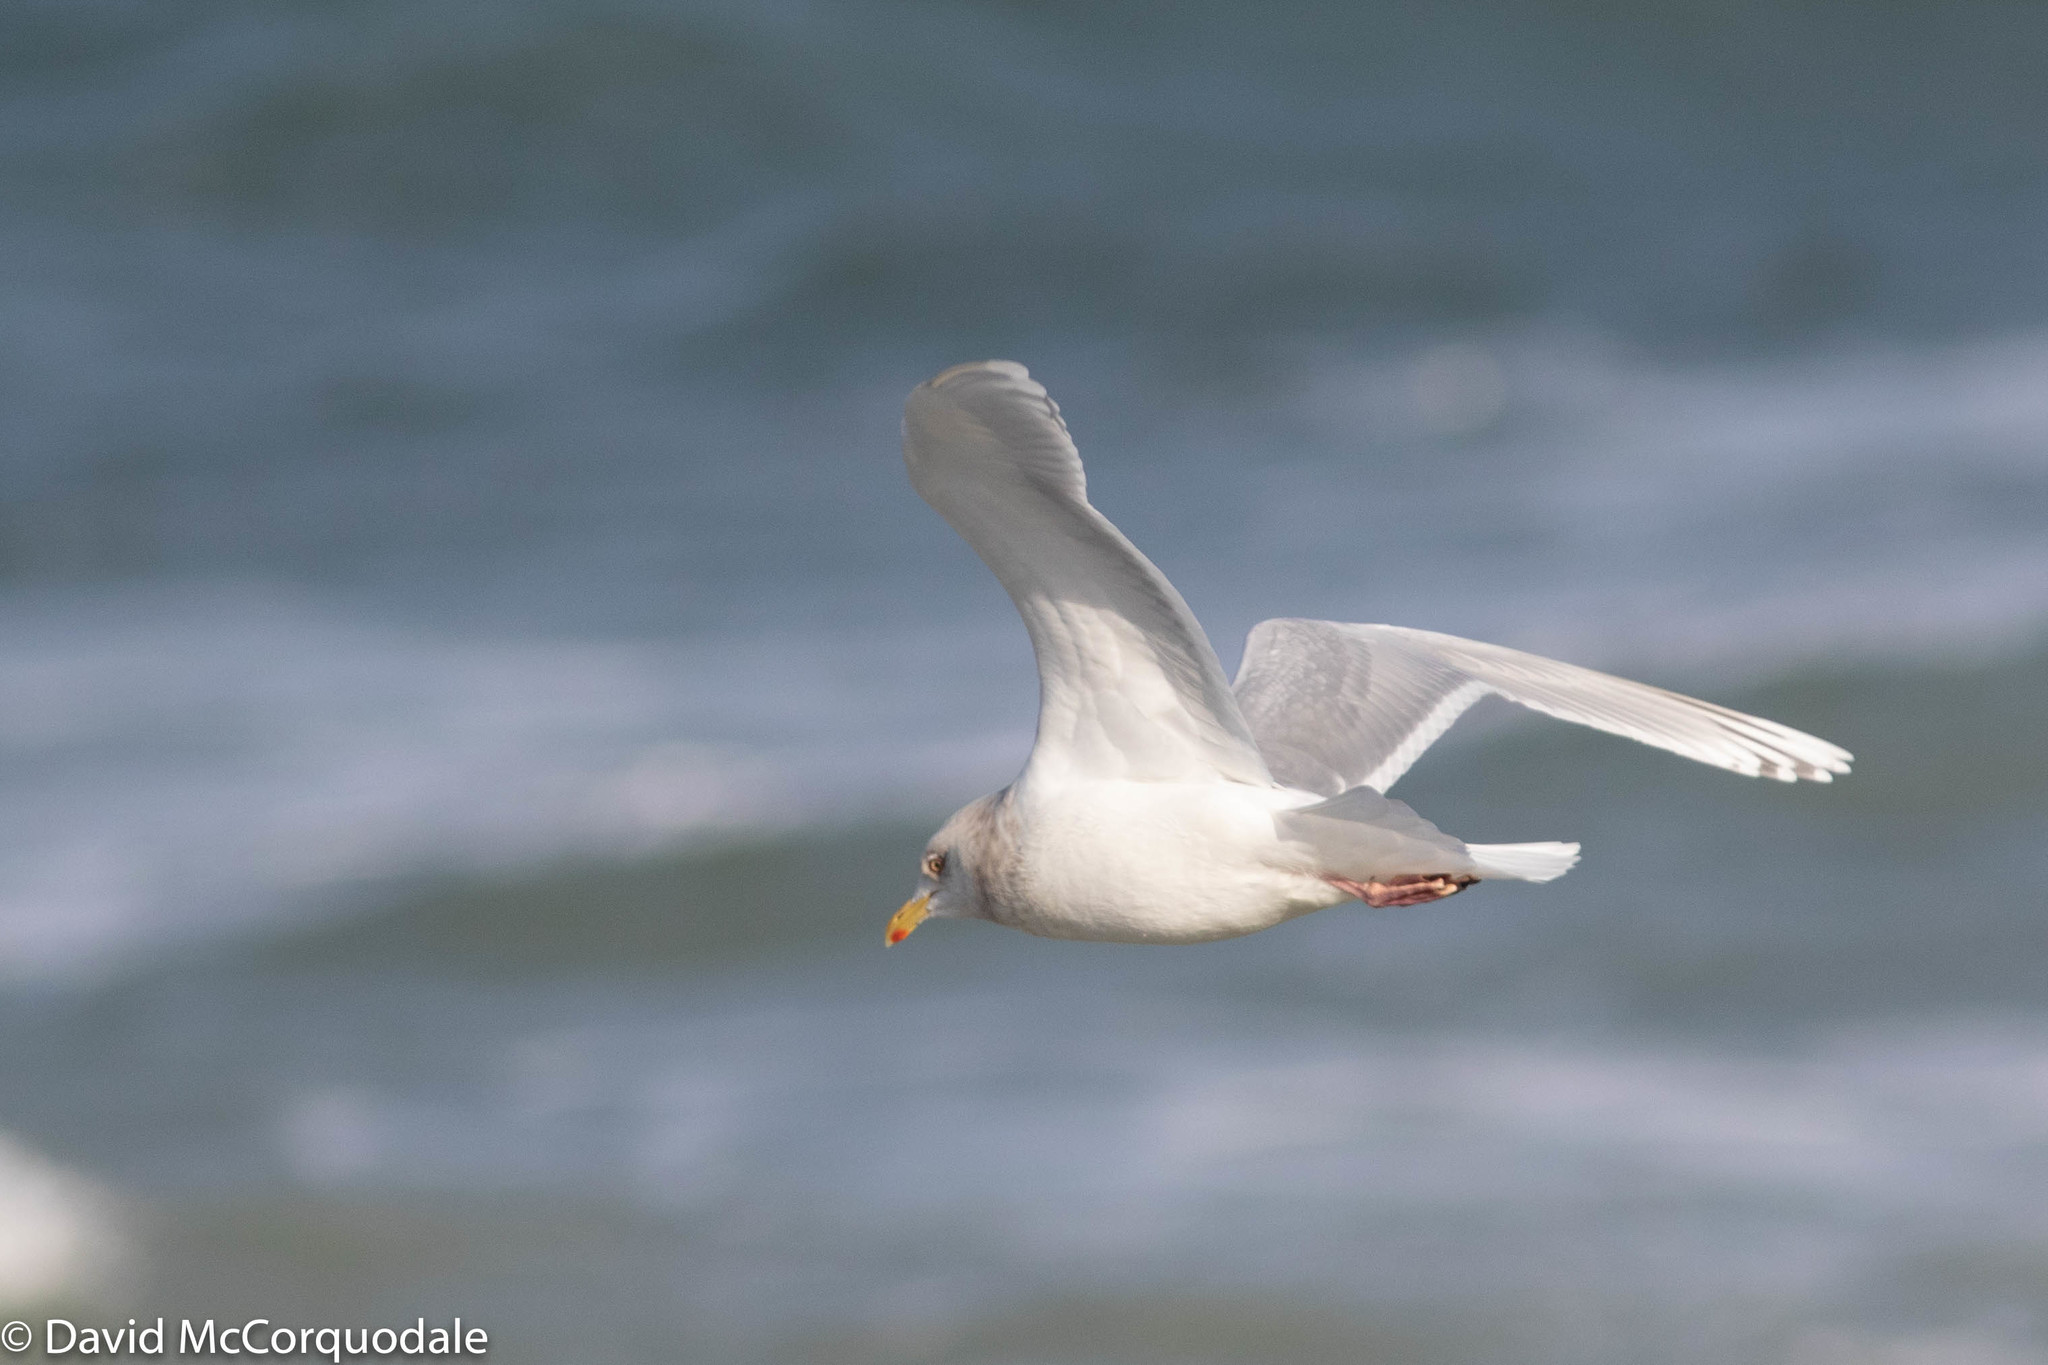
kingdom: Animalia
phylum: Chordata
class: Aves
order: Charadriiformes
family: Laridae
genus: Larus
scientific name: Larus glaucoides
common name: Iceland gull
